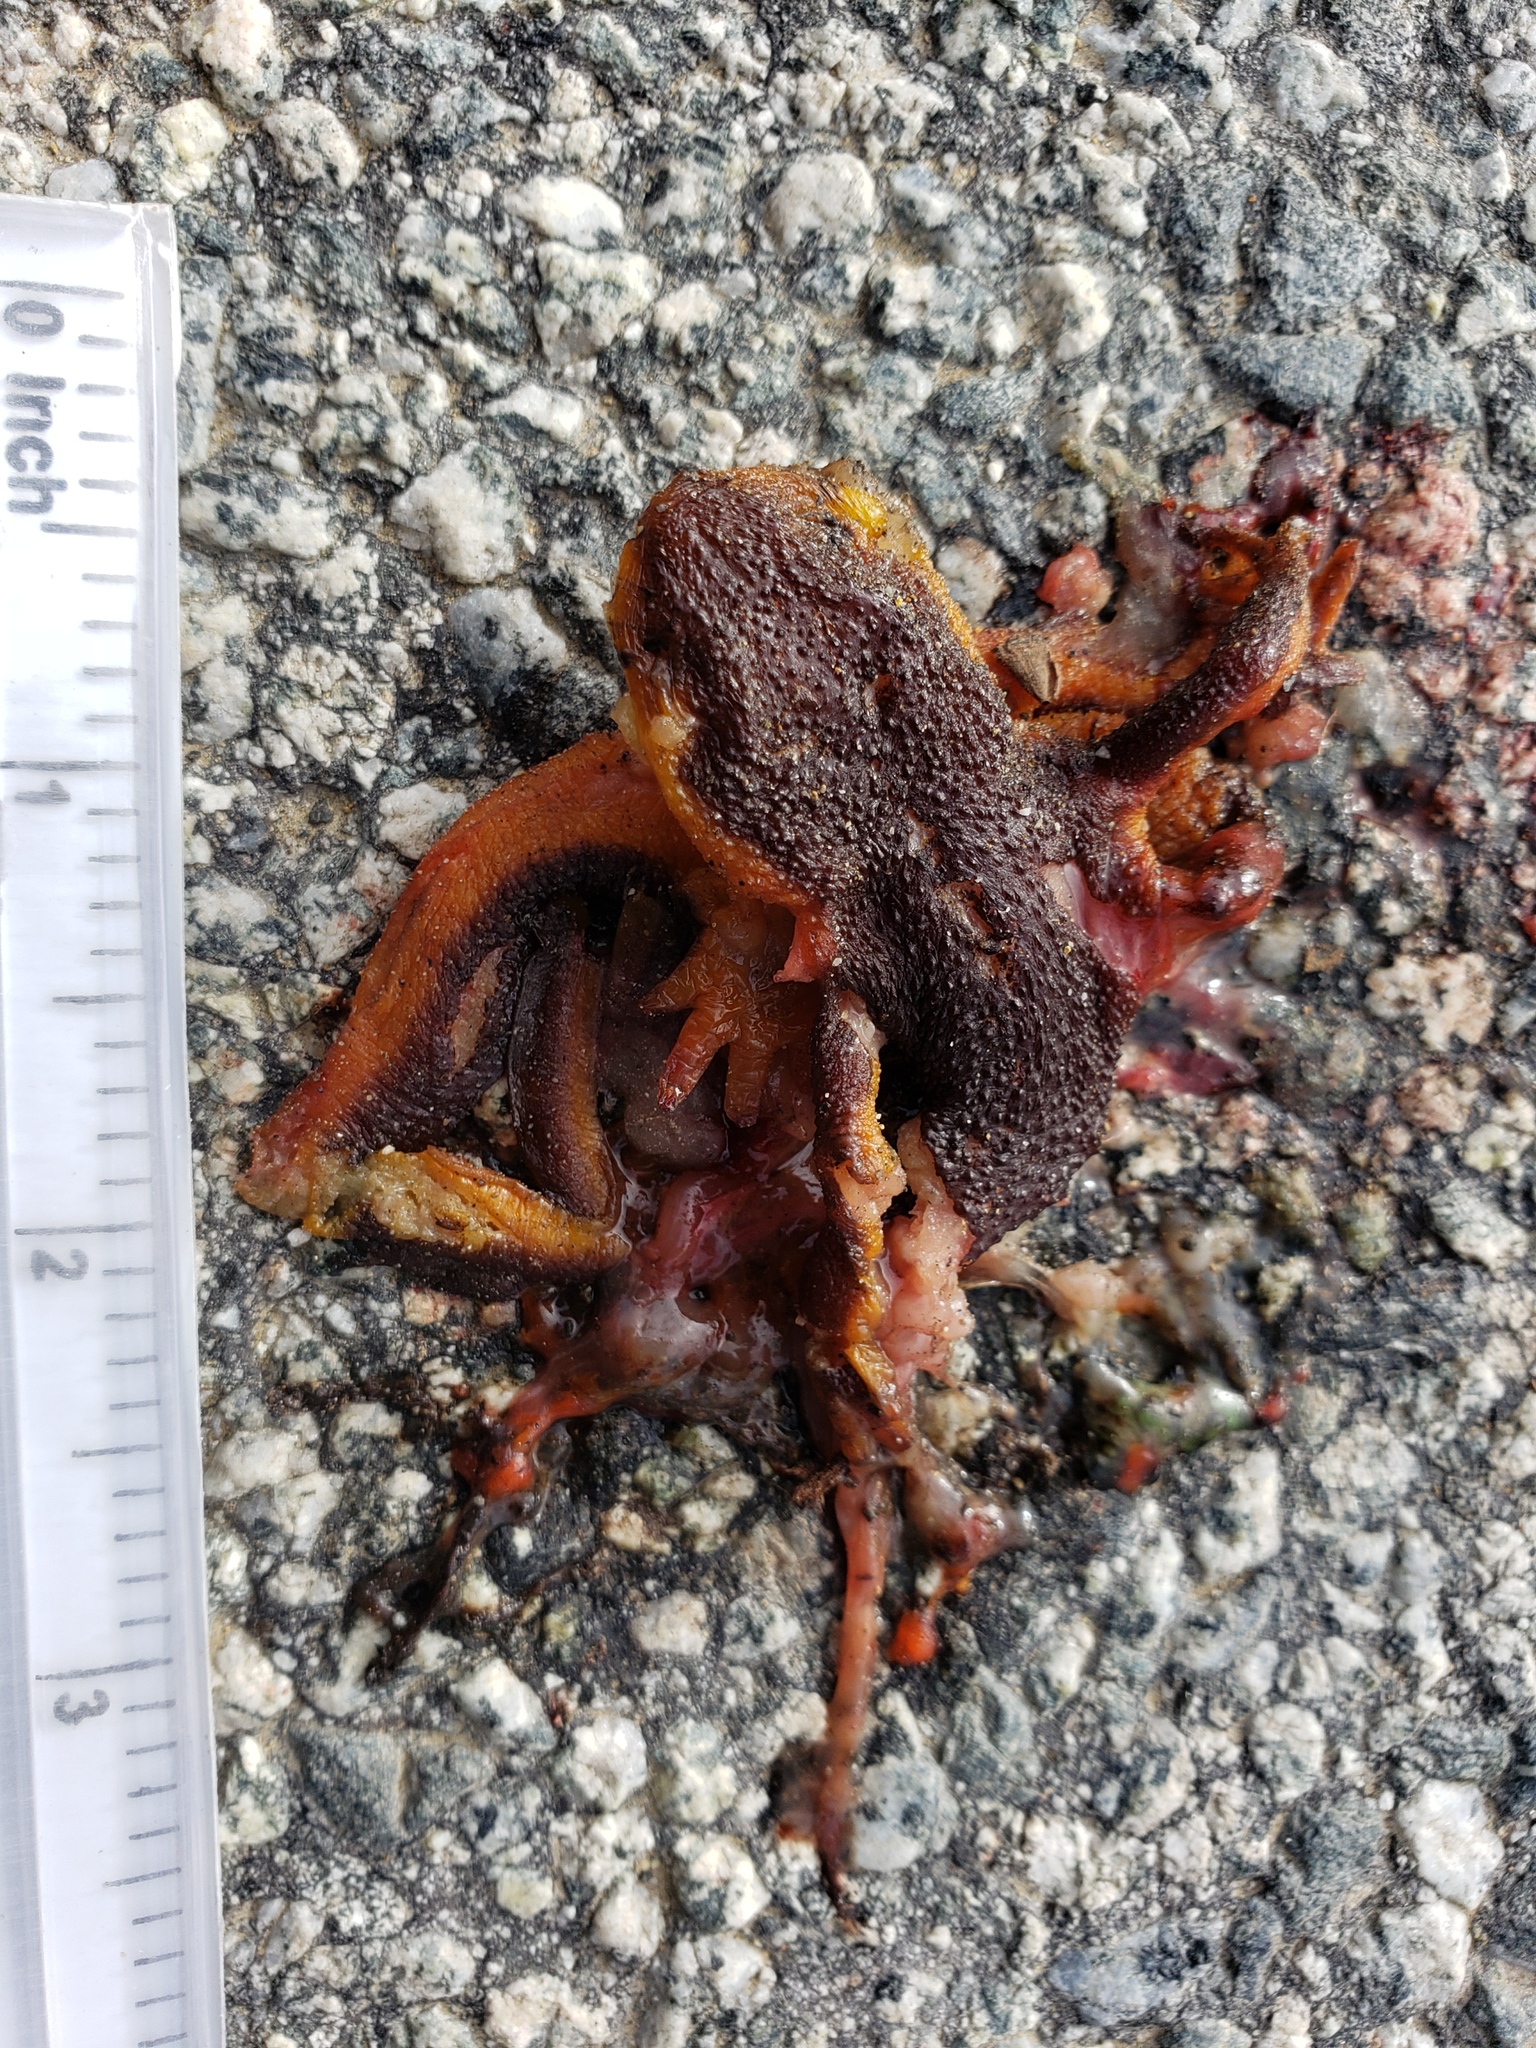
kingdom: Animalia
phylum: Chordata
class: Amphibia
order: Caudata
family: Salamandridae
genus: Taricha
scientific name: Taricha
